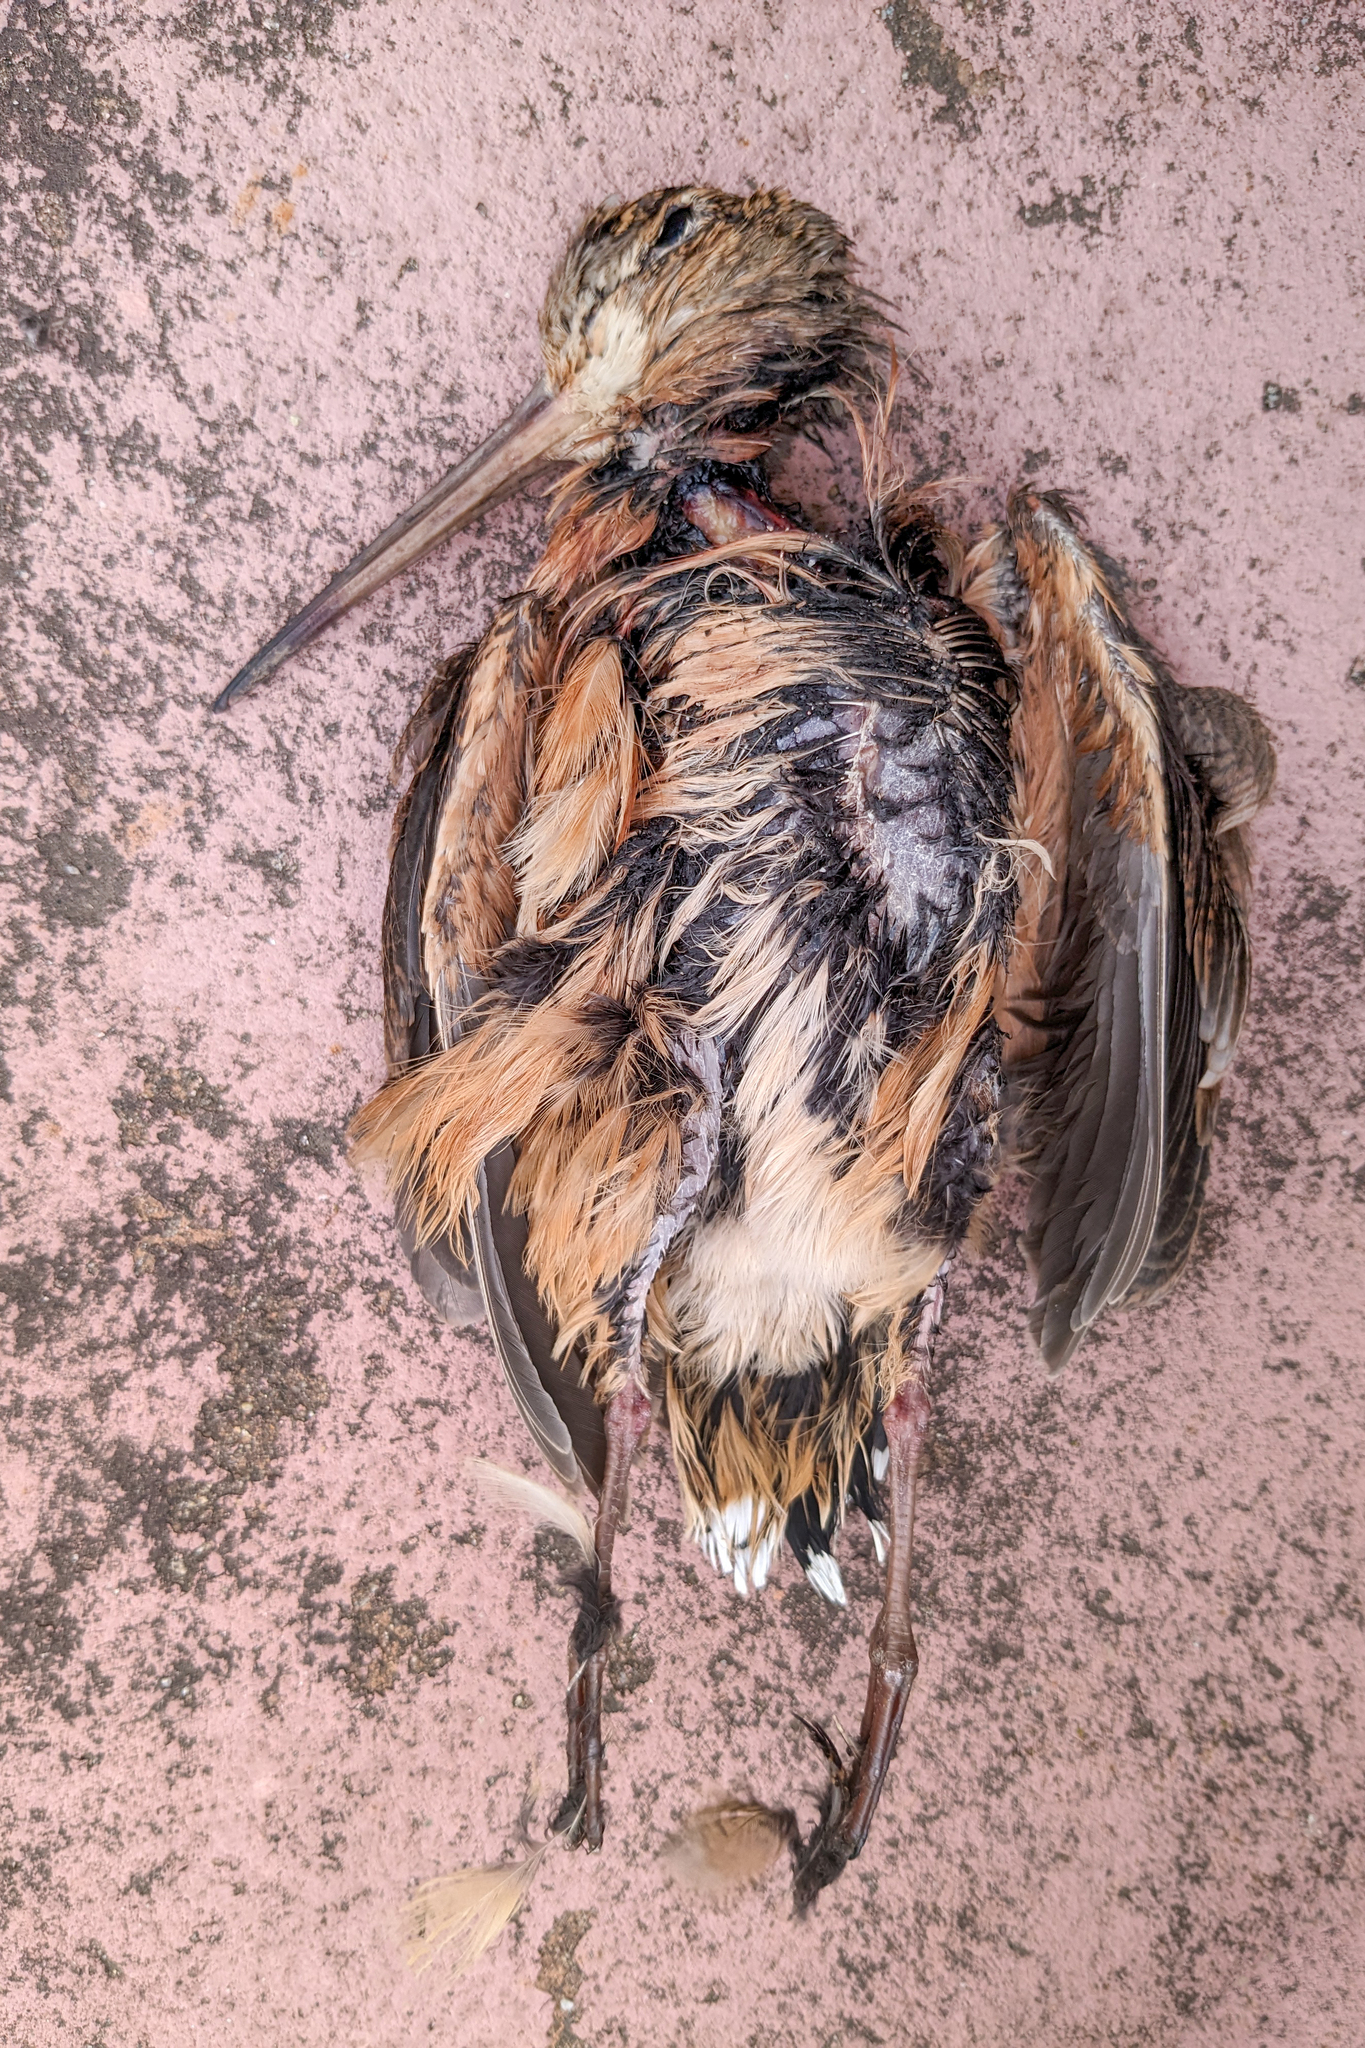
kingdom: Animalia
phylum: Chordata
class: Aves
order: Charadriiformes
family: Scolopacidae
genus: Scolopax
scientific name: Scolopax minor
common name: American woodcock
